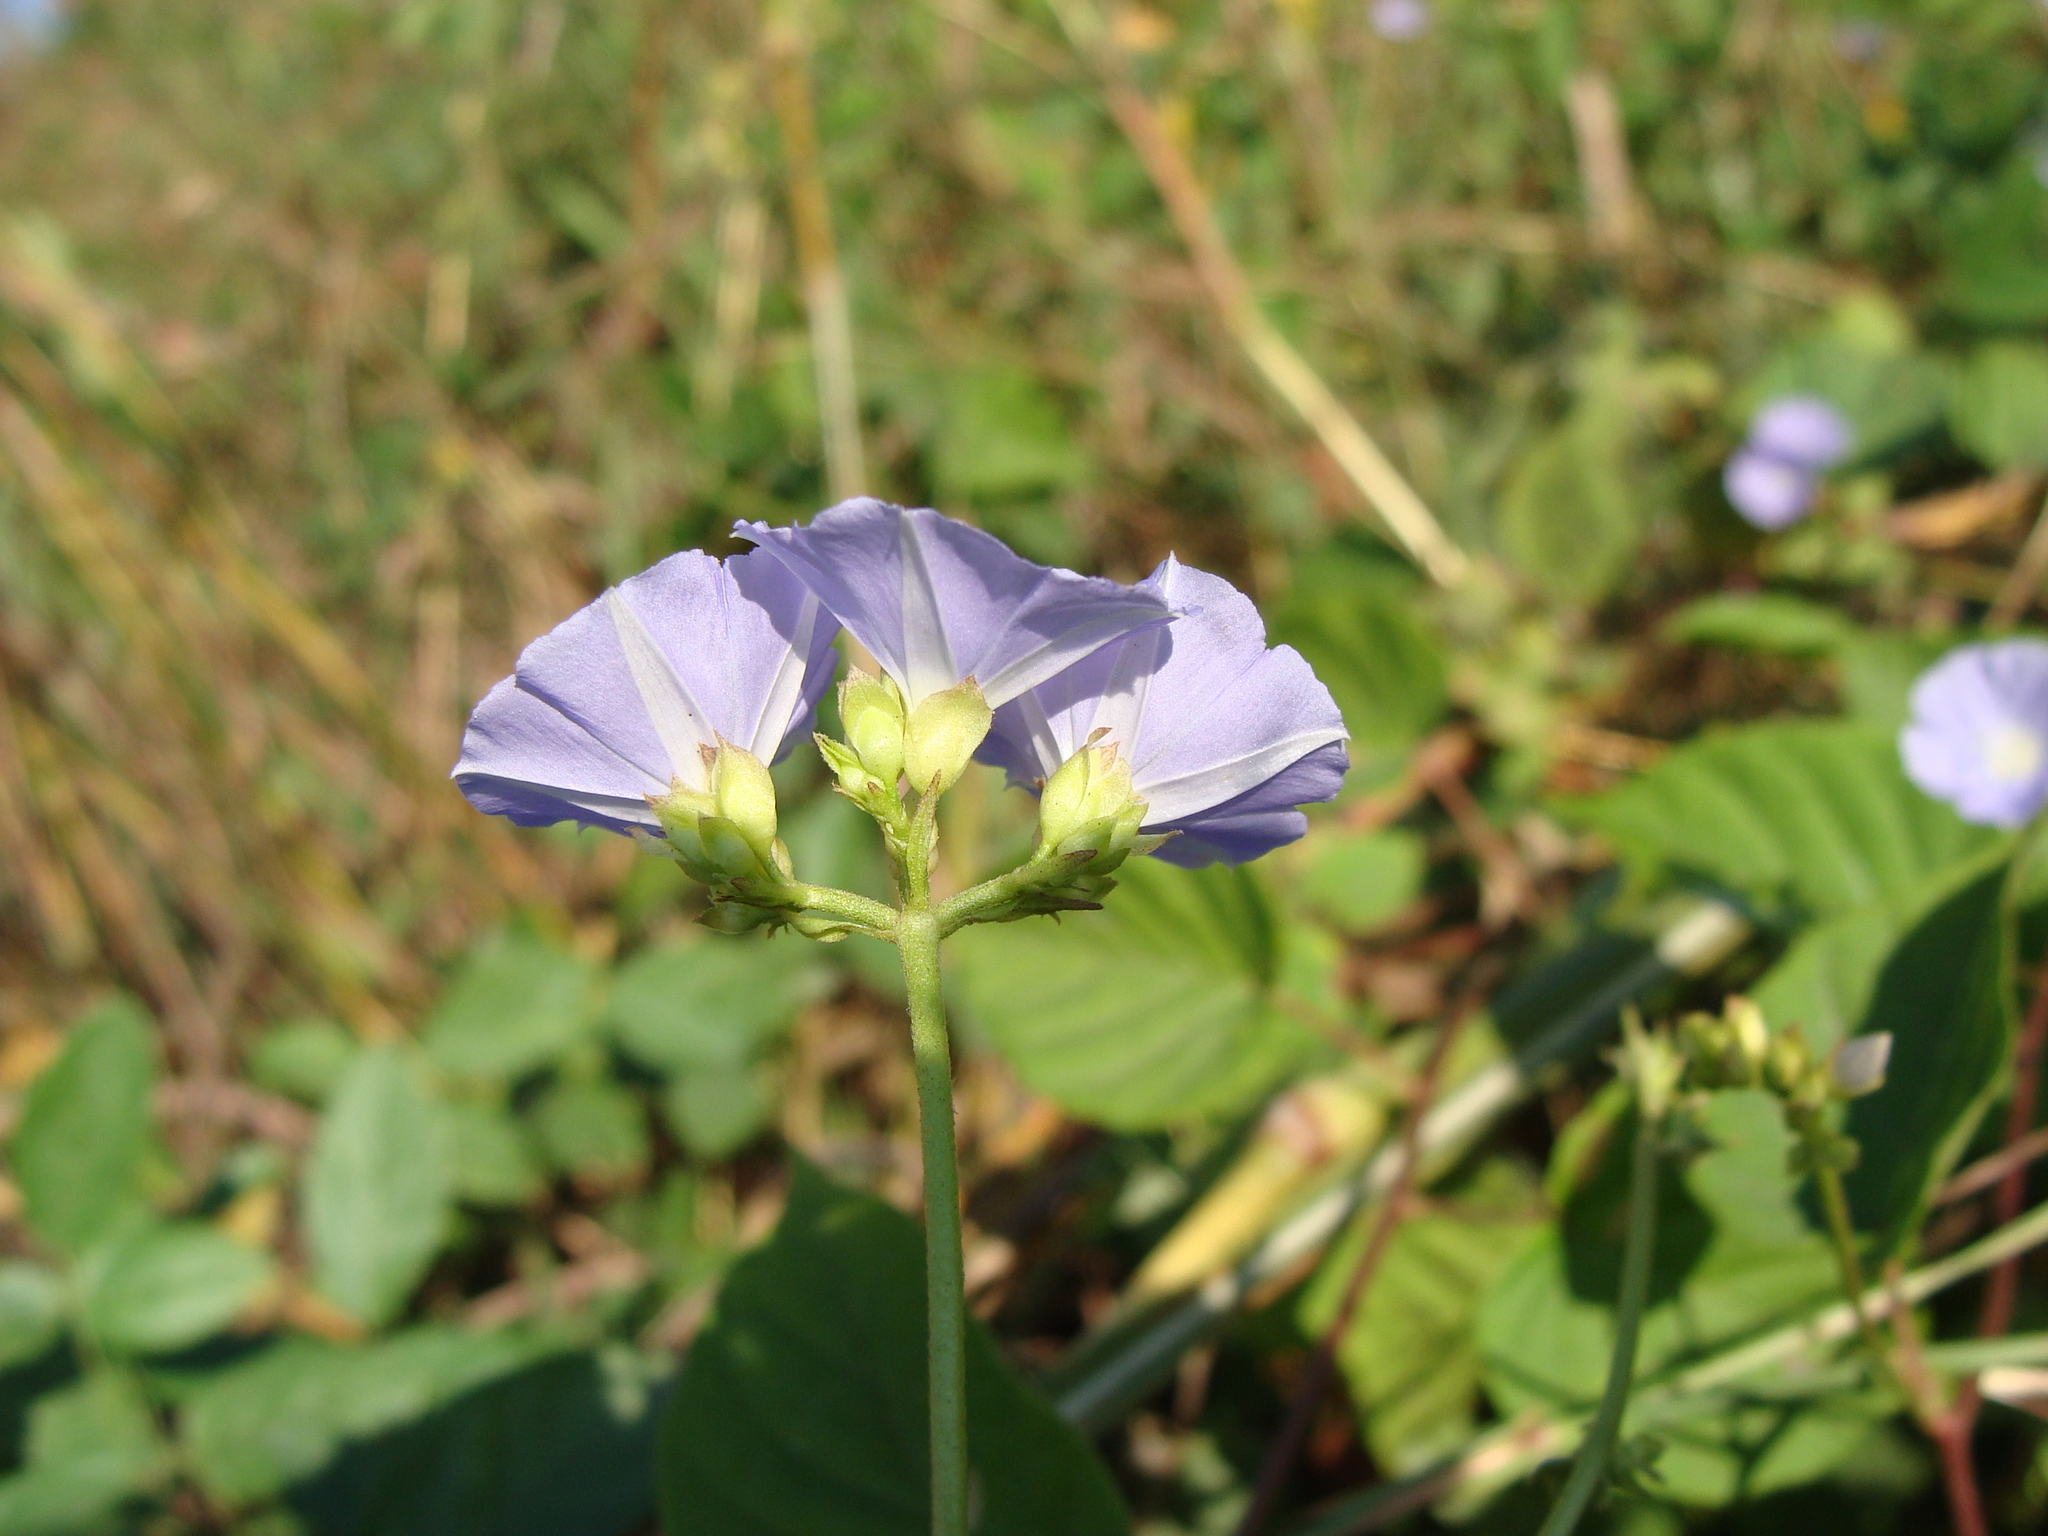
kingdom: Plantae
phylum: Tracheophyta
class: Magnoliopsida
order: Solanales
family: Convolvulaceae
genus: Jacquemontia
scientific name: Jacquemontia oaxacana
